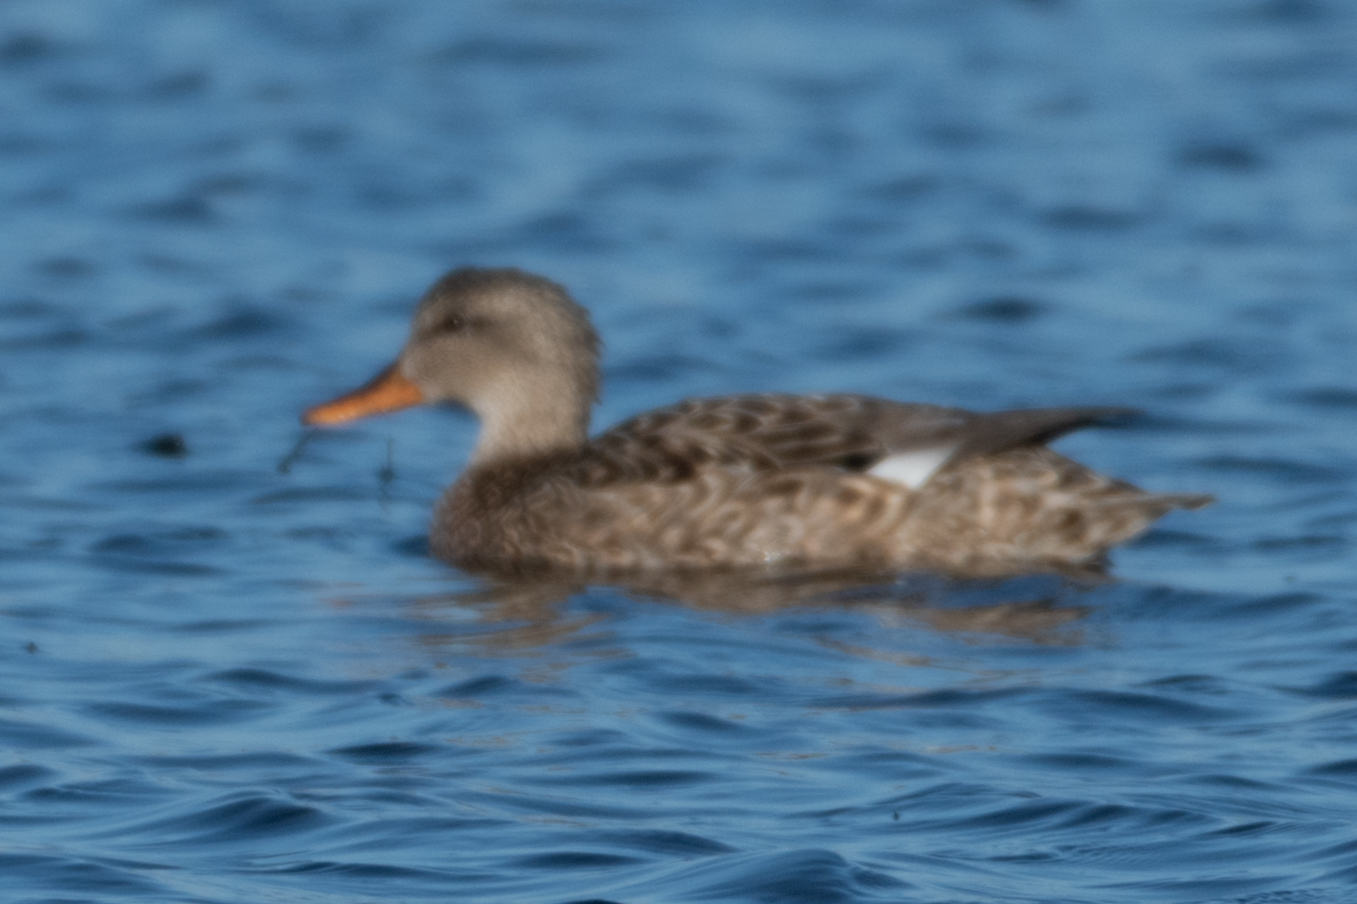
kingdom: Animalia
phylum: Chordata
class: Aves
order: Anseriformes
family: Anatidae
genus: Mareca
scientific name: Mareca strepera
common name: Gadwall
